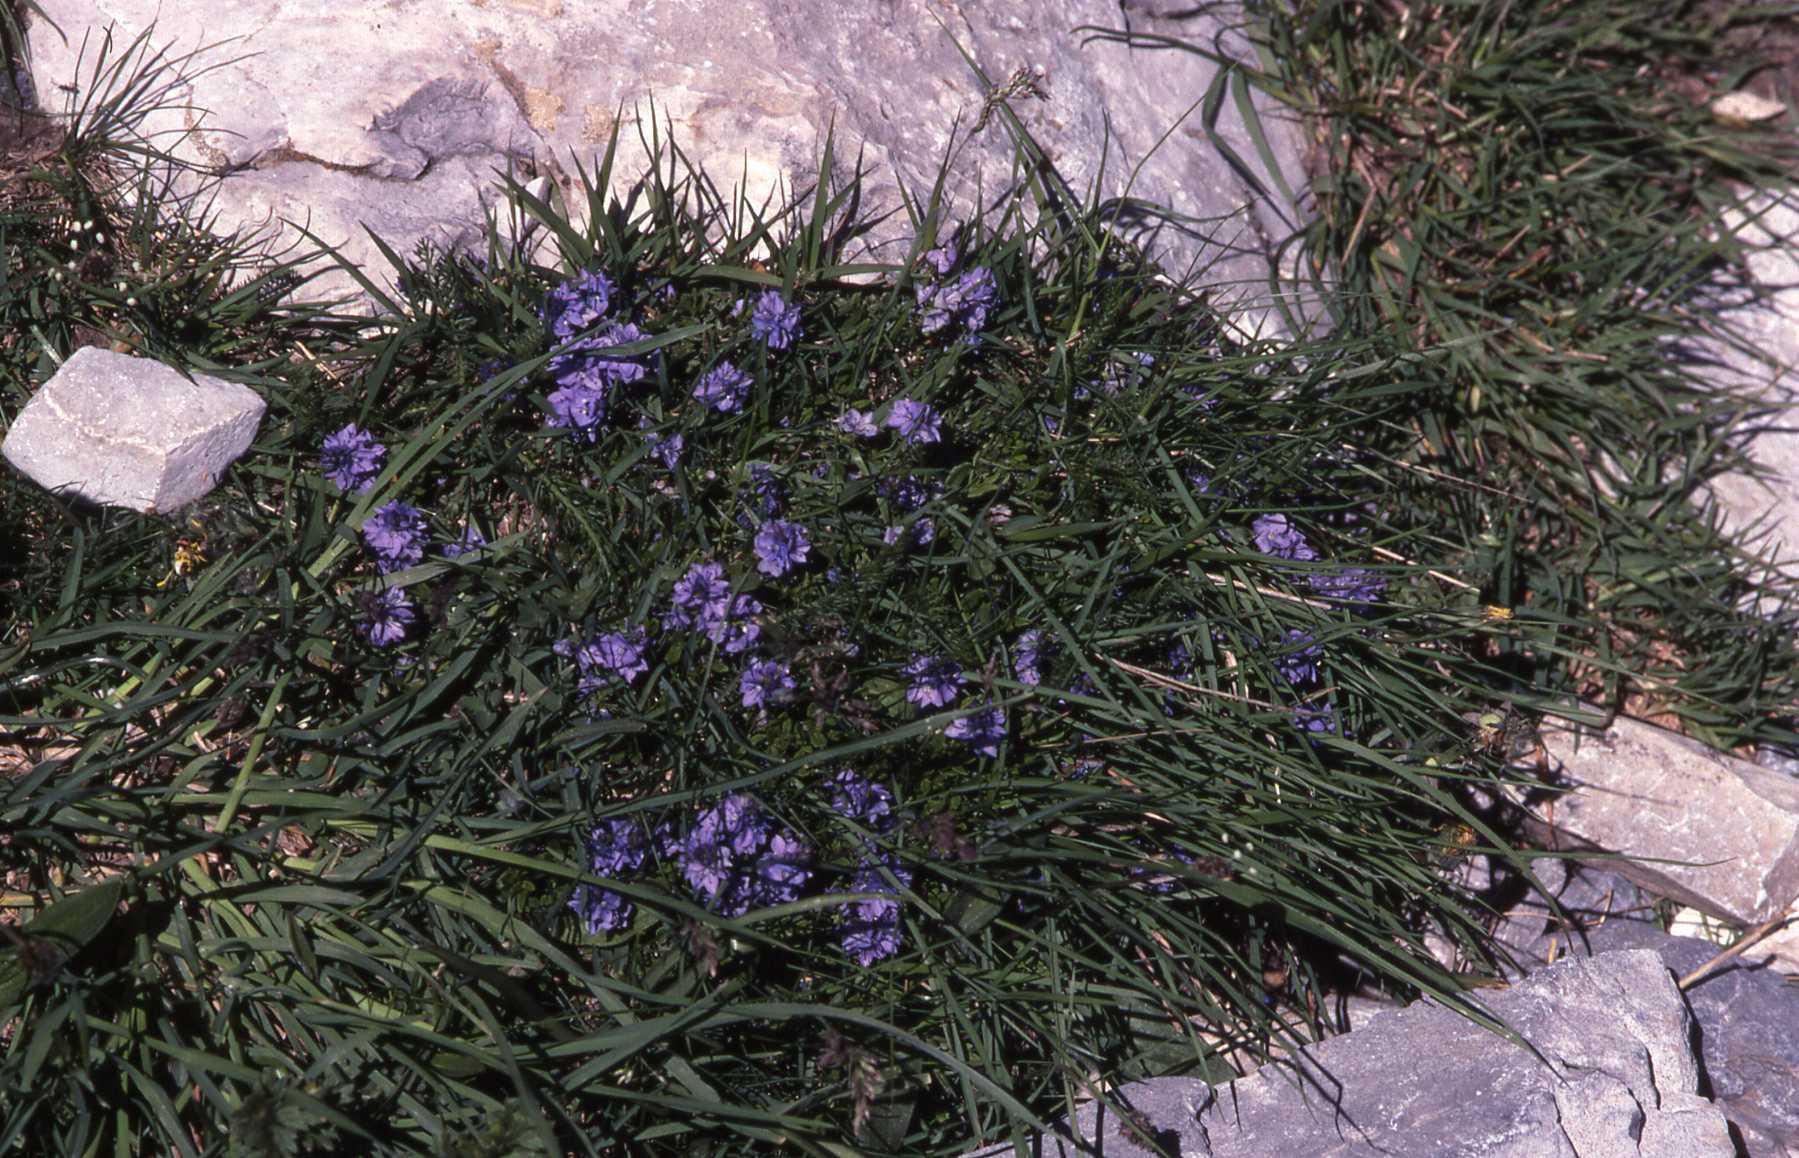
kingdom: Plantae
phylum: Tracheophyta
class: Magnoliopsida
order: Lamiales
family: Plantaginaceae
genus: Veronica
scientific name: Veronica orsiniana
